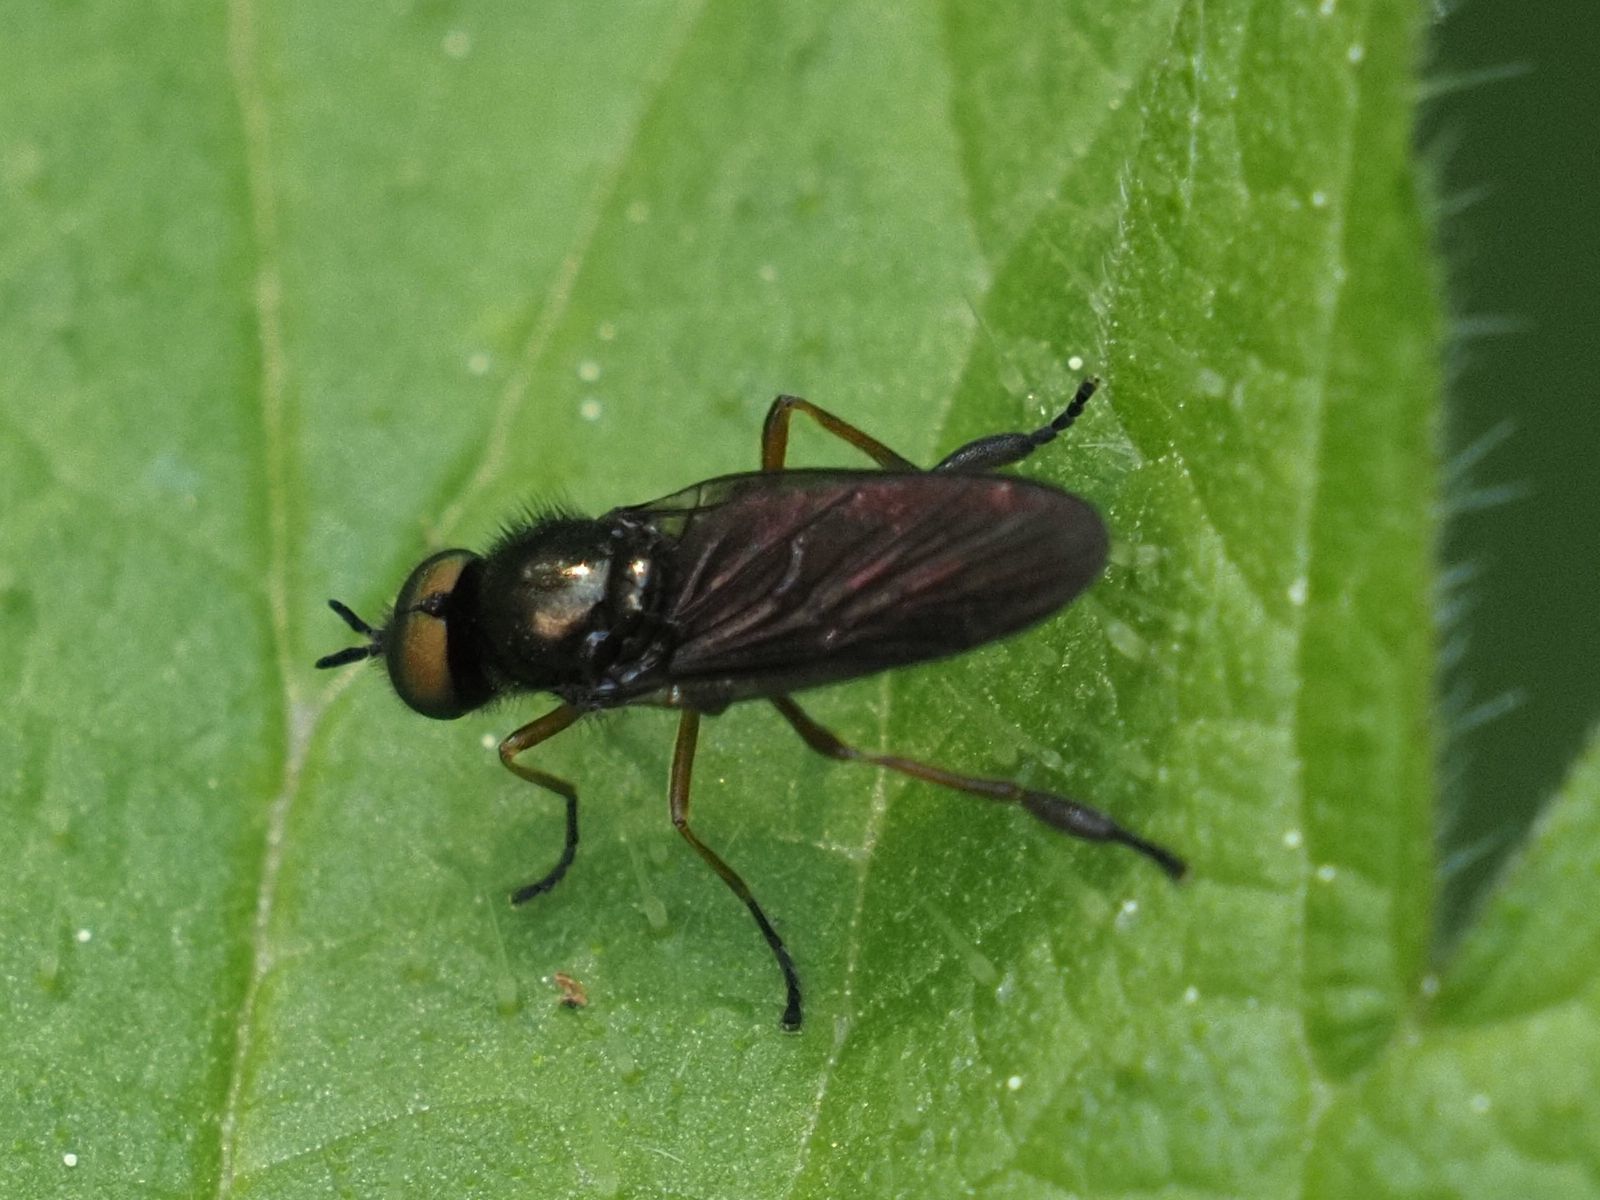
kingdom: Animalia
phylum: Arthropoda
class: Insecta
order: Diptera
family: Stratiomyidae
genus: Beris
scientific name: Beris chalybata
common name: Murky-legged black legionnaire
